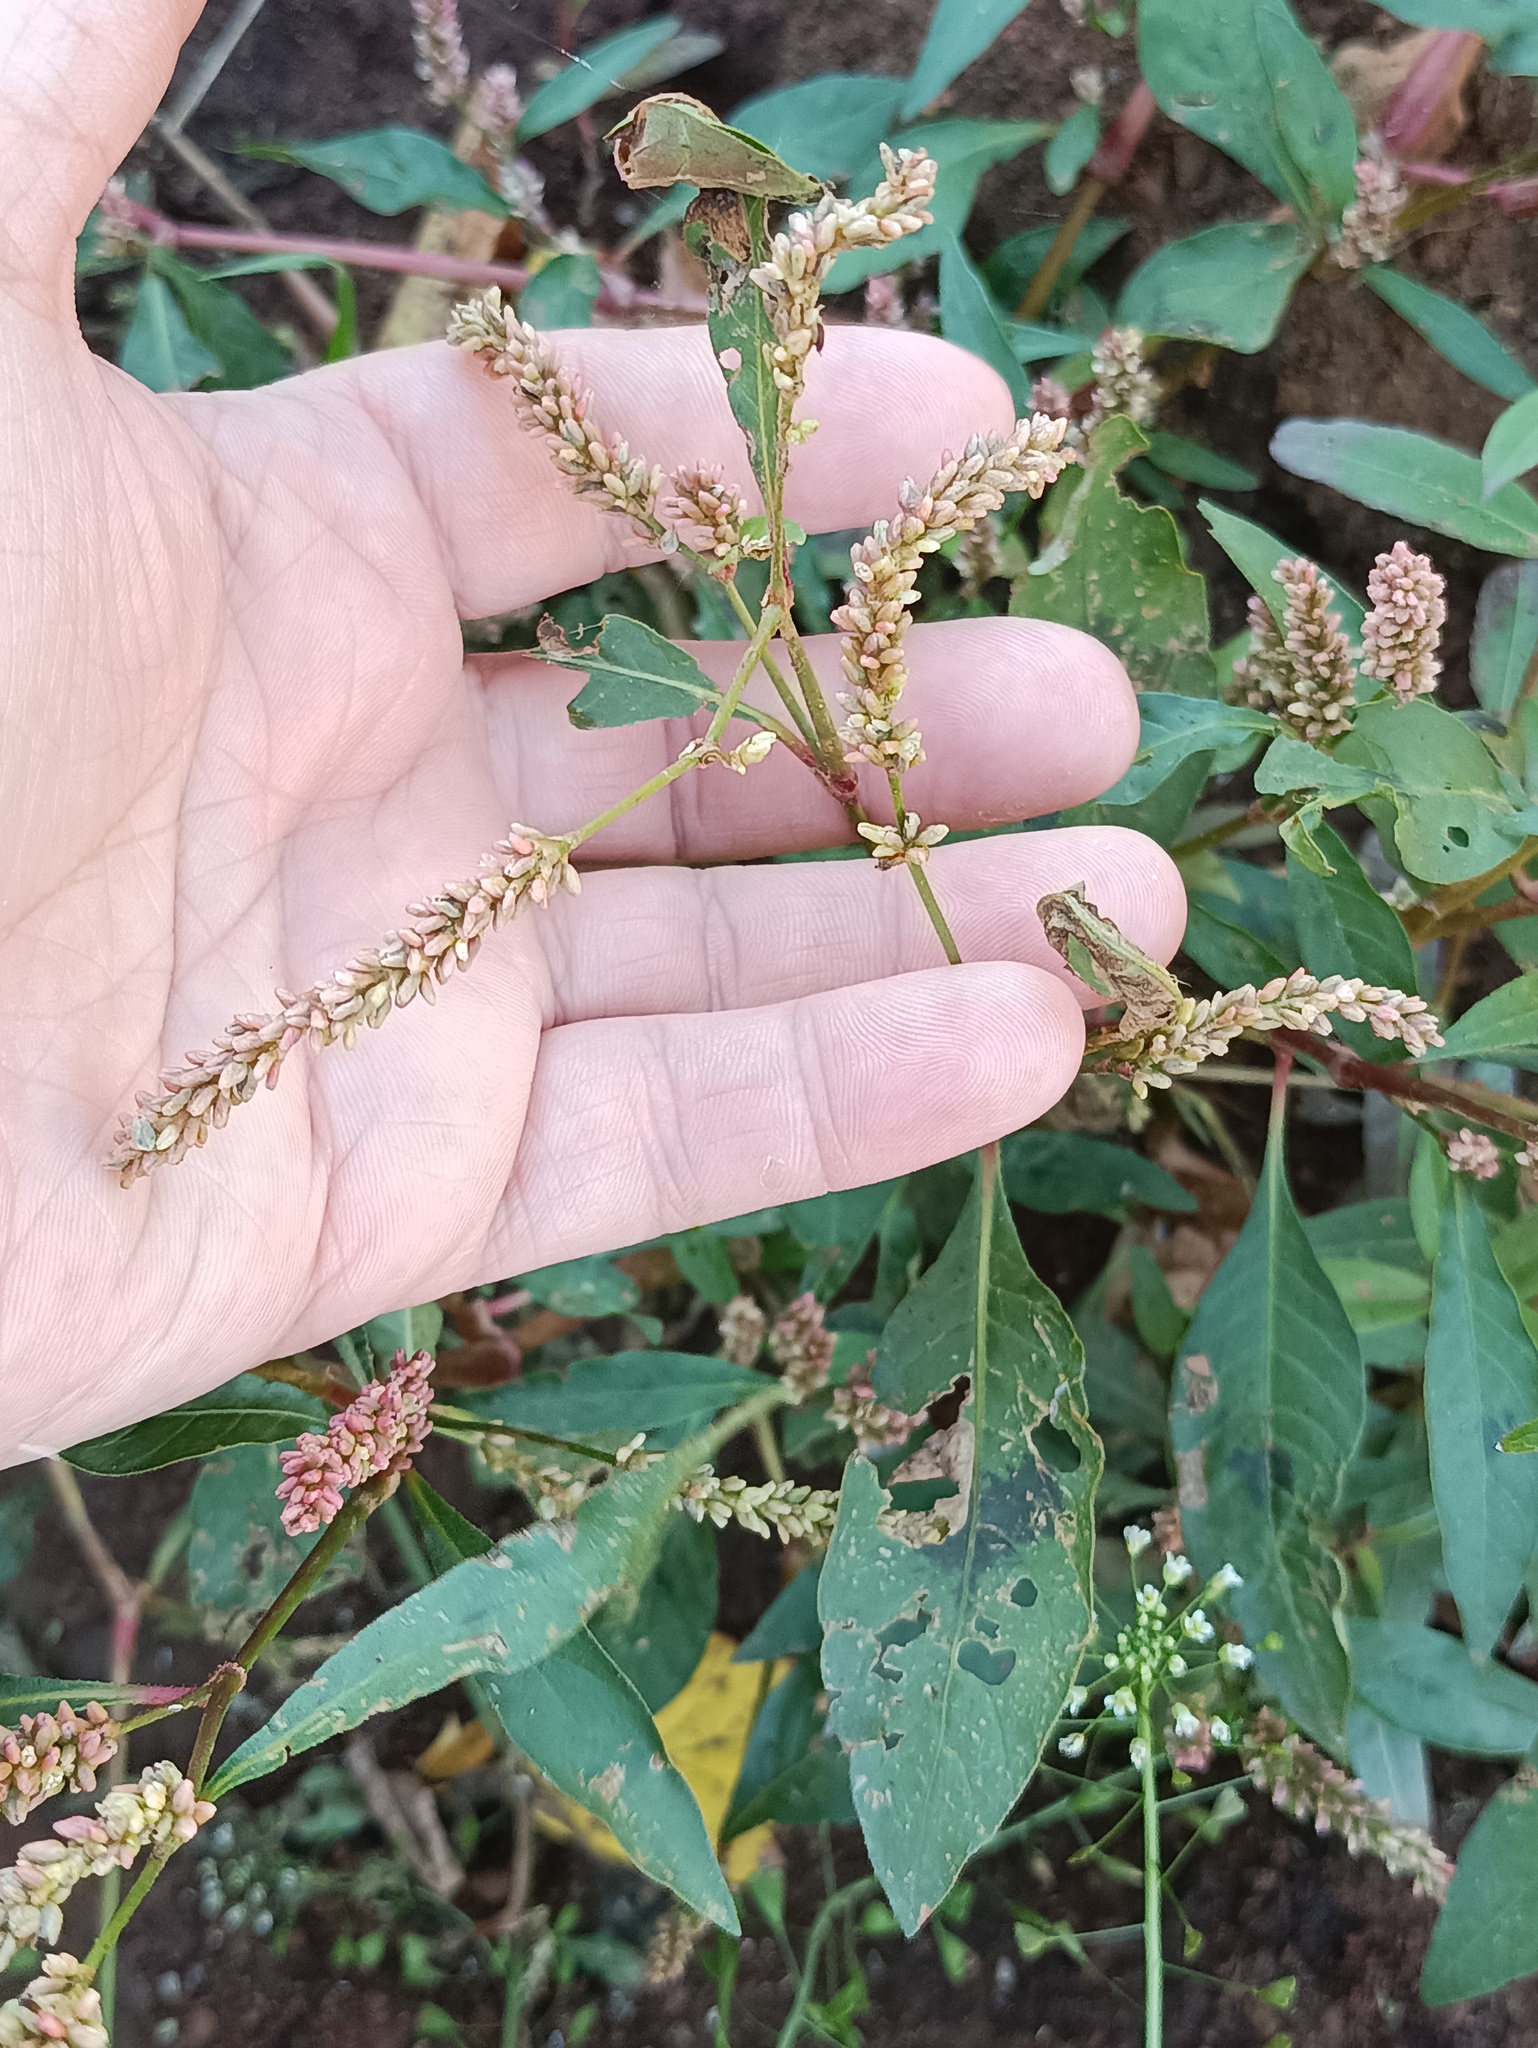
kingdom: Plantae
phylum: Tracheophyta
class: Magnoliopsida
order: Caryophyllales
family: Polygonaceae
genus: Persicaria
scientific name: Persicaria lapathifolia
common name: Curlytop knotweed
